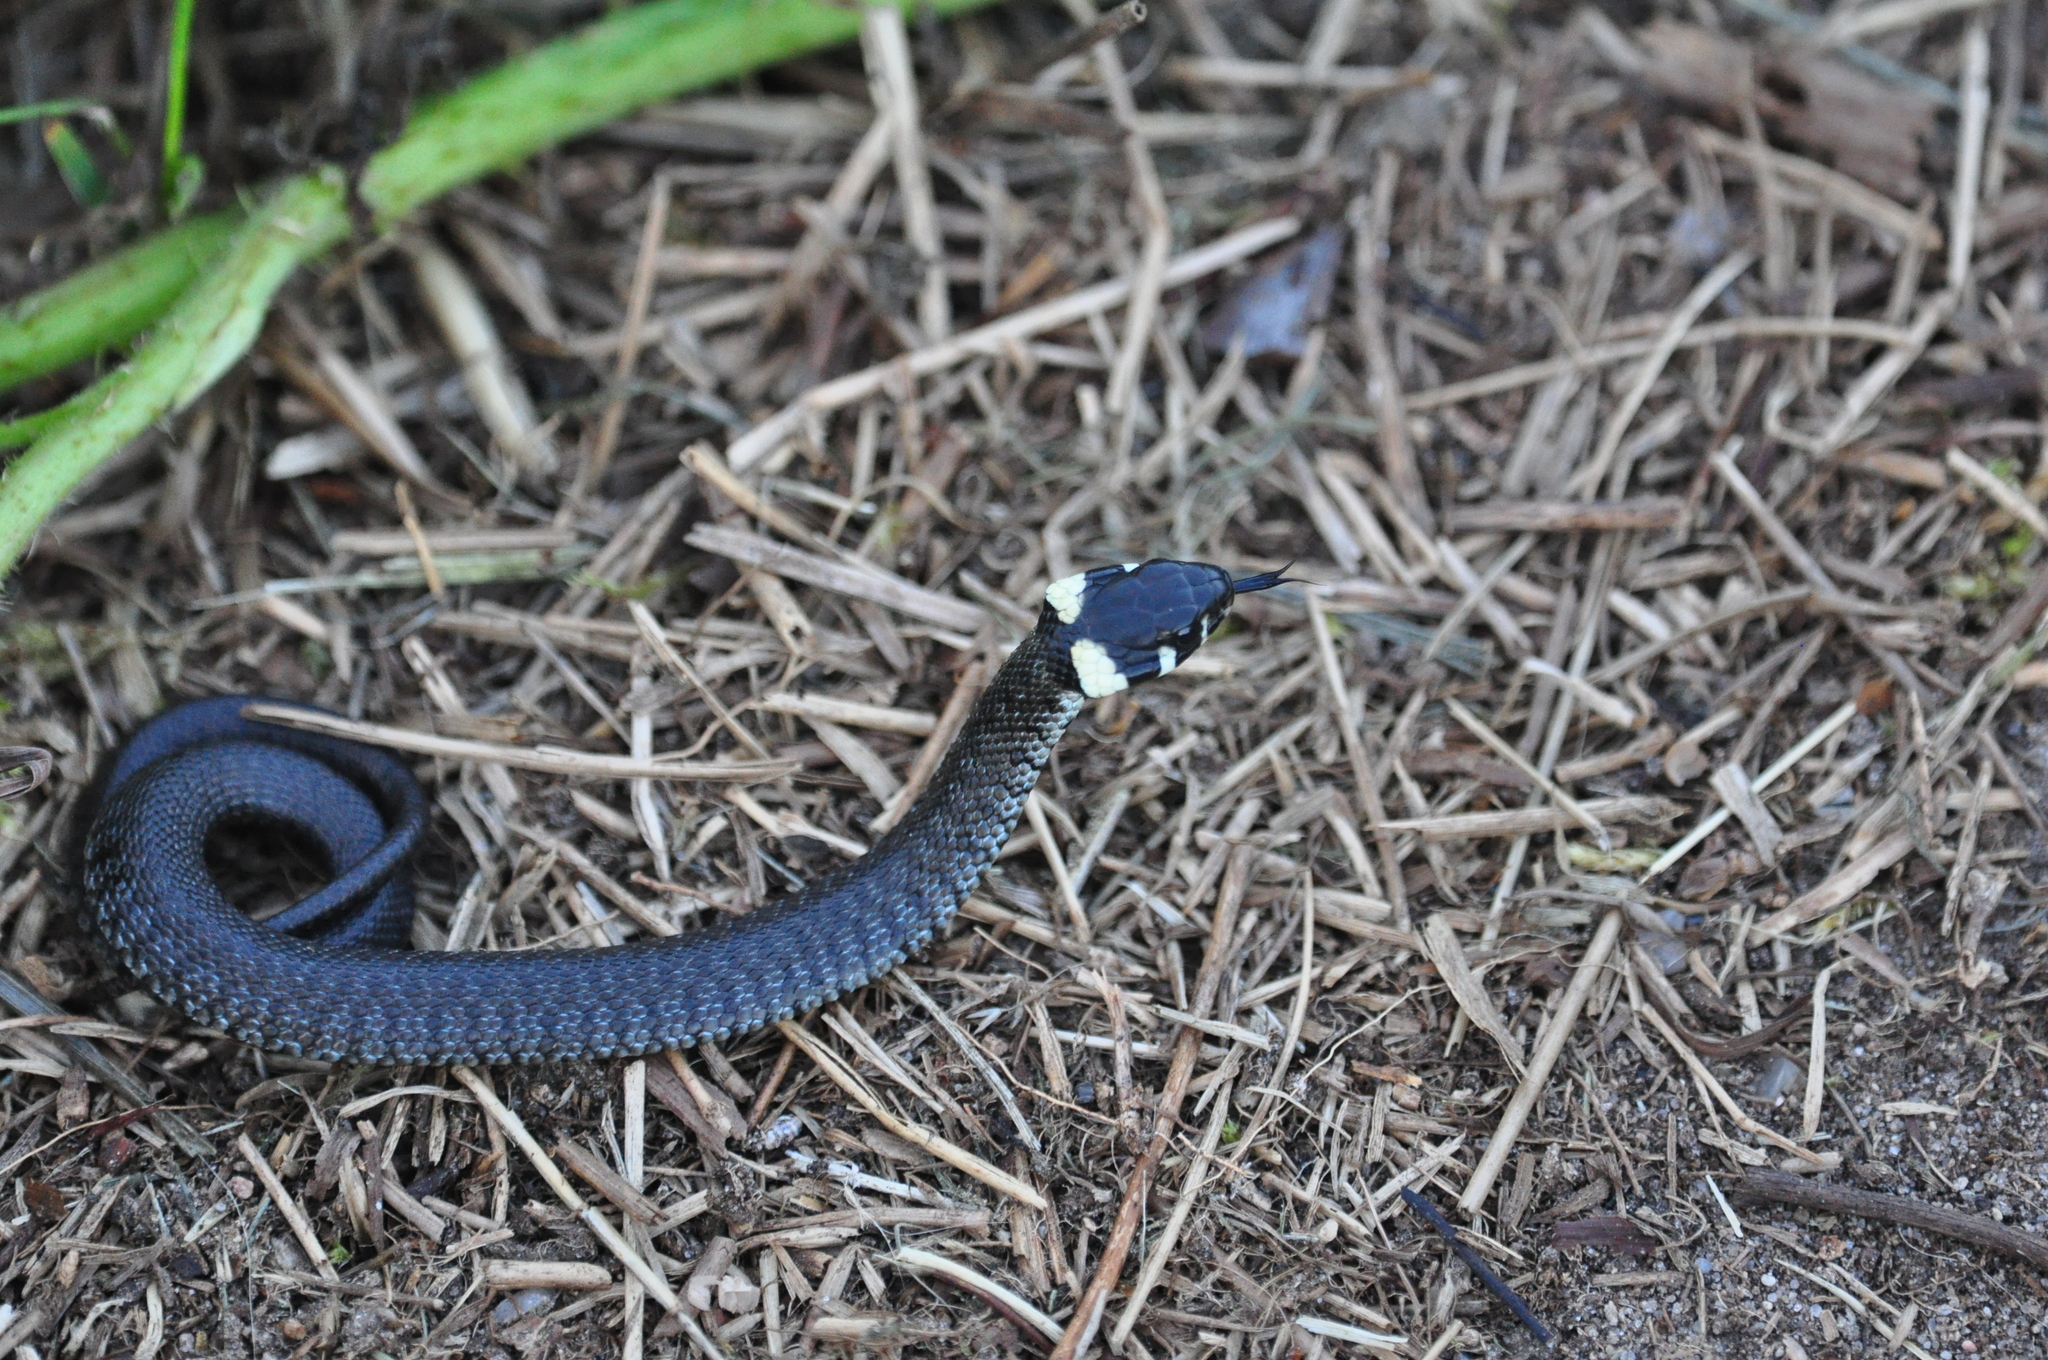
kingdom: Animalia
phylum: Chordata
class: Squamata
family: Colubridae
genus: Natrix
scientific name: Natrix natrix
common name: Grass snake
